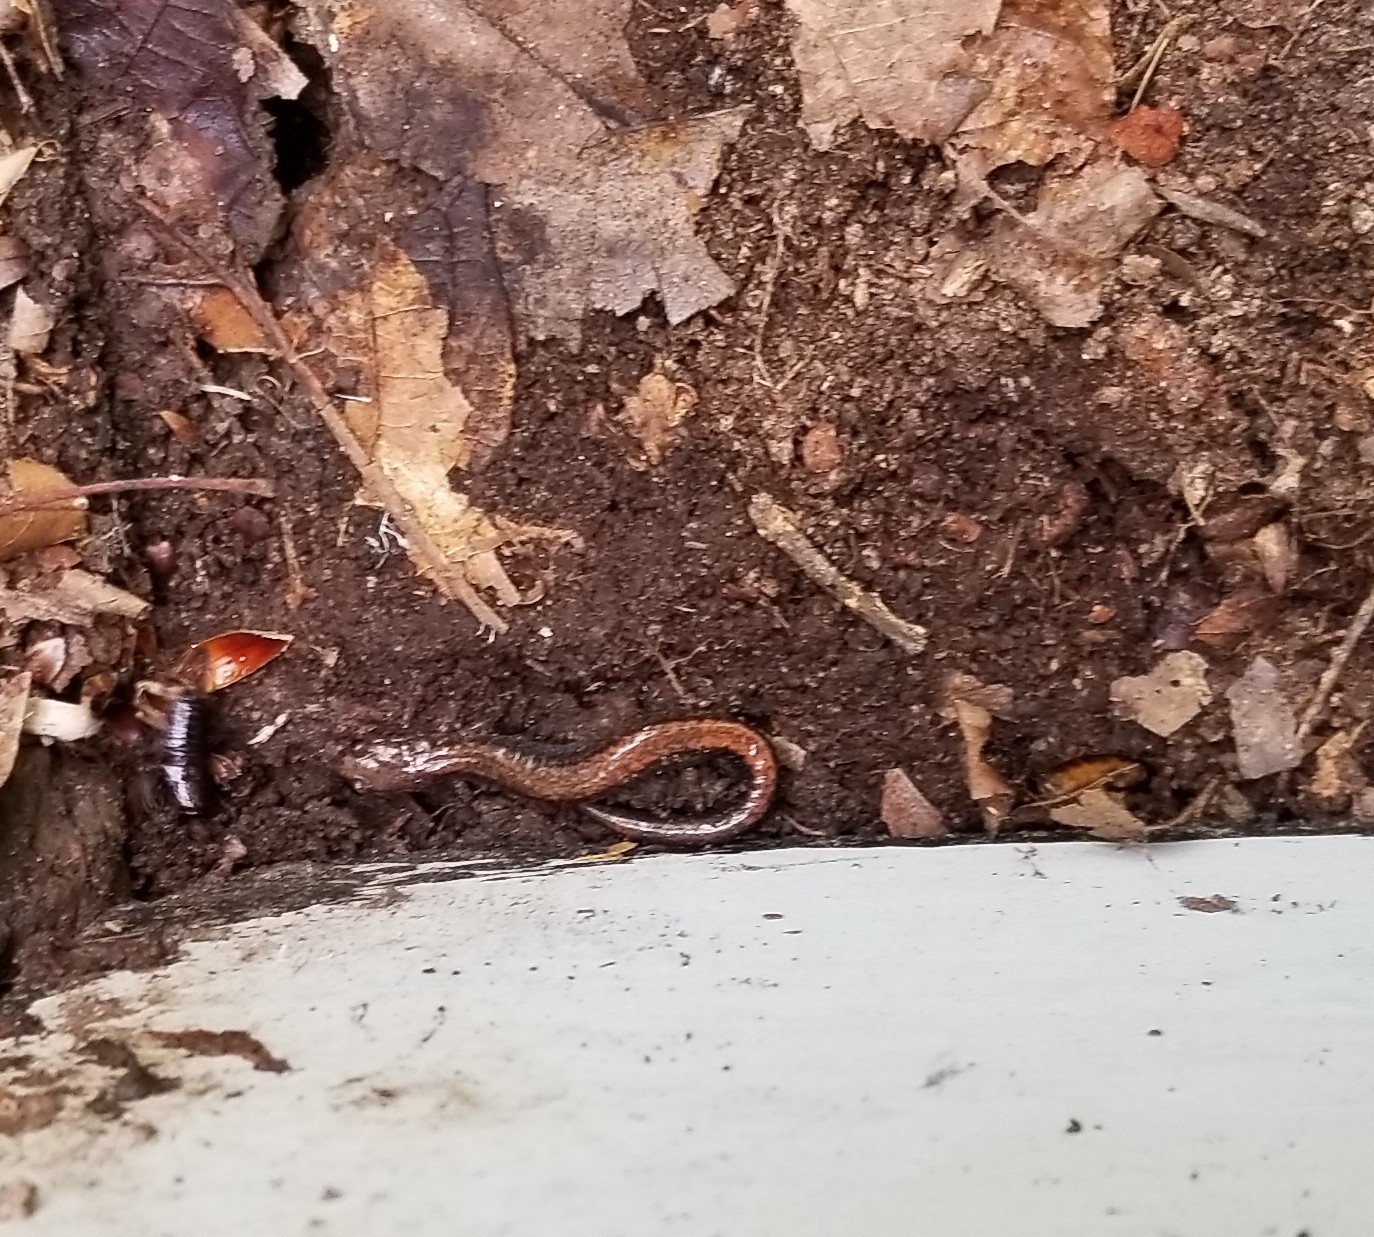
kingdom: Animalia
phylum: Chordata
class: Amphibia
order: Caudata
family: Plethodontidae
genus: Plethodon
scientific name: Plethodon cinereus
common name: Redback salamander
